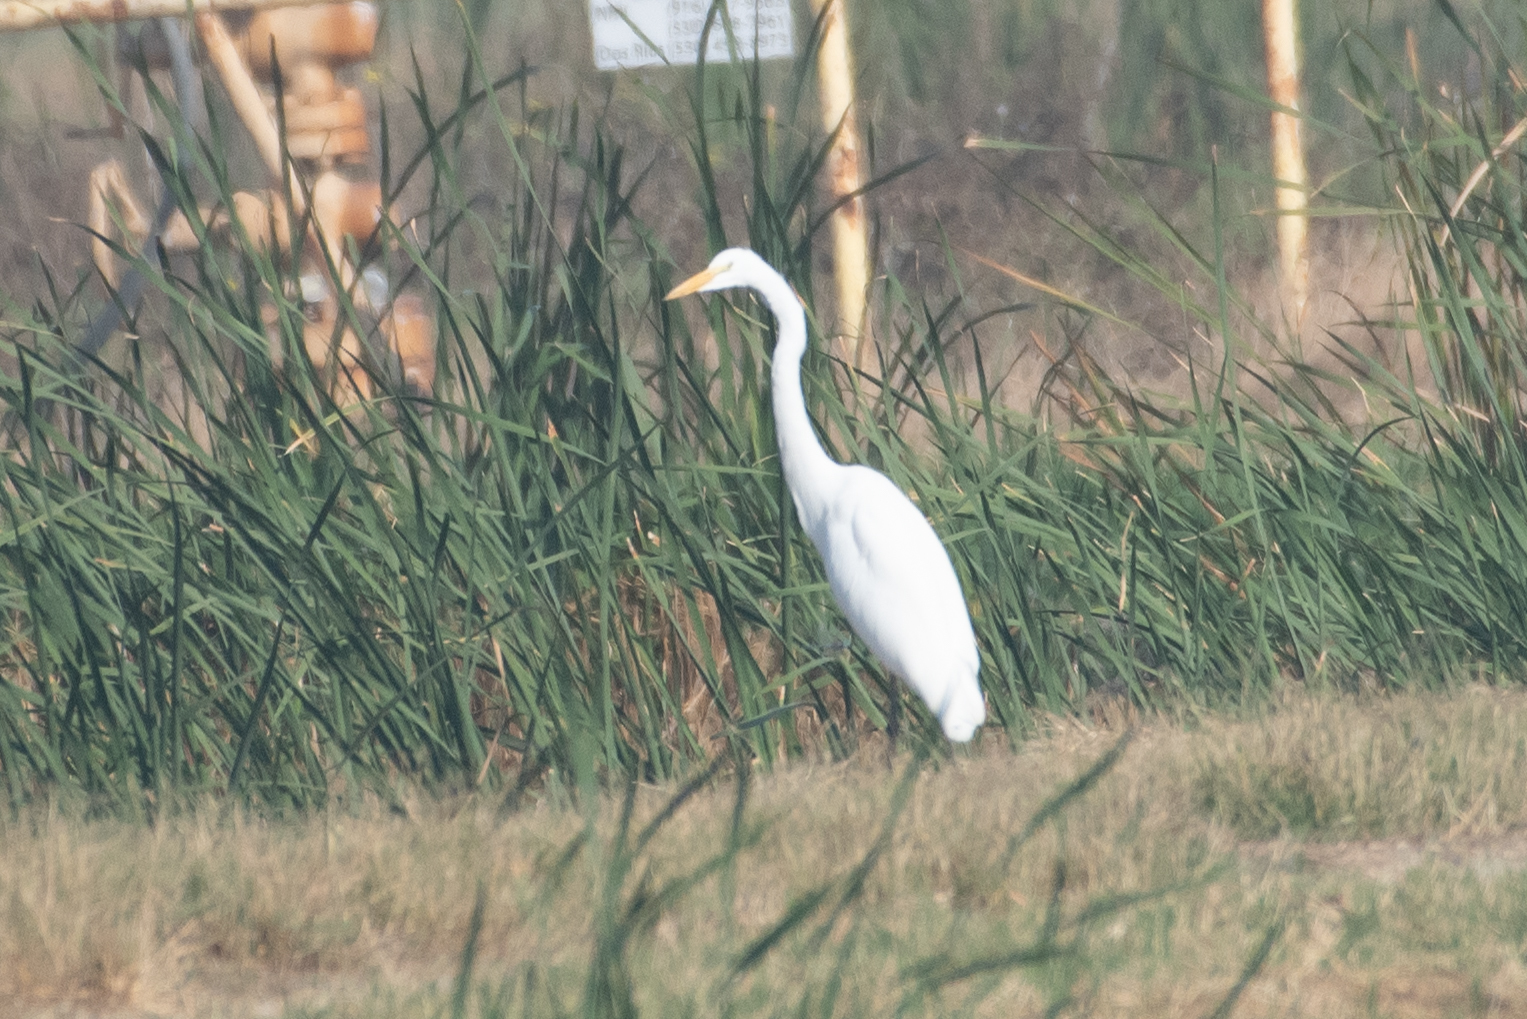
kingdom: Animalia
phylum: Chordata
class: Aves
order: Pelecaniformes
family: Ardeidae
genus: Ardea
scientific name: Ardea alba
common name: Great egret
